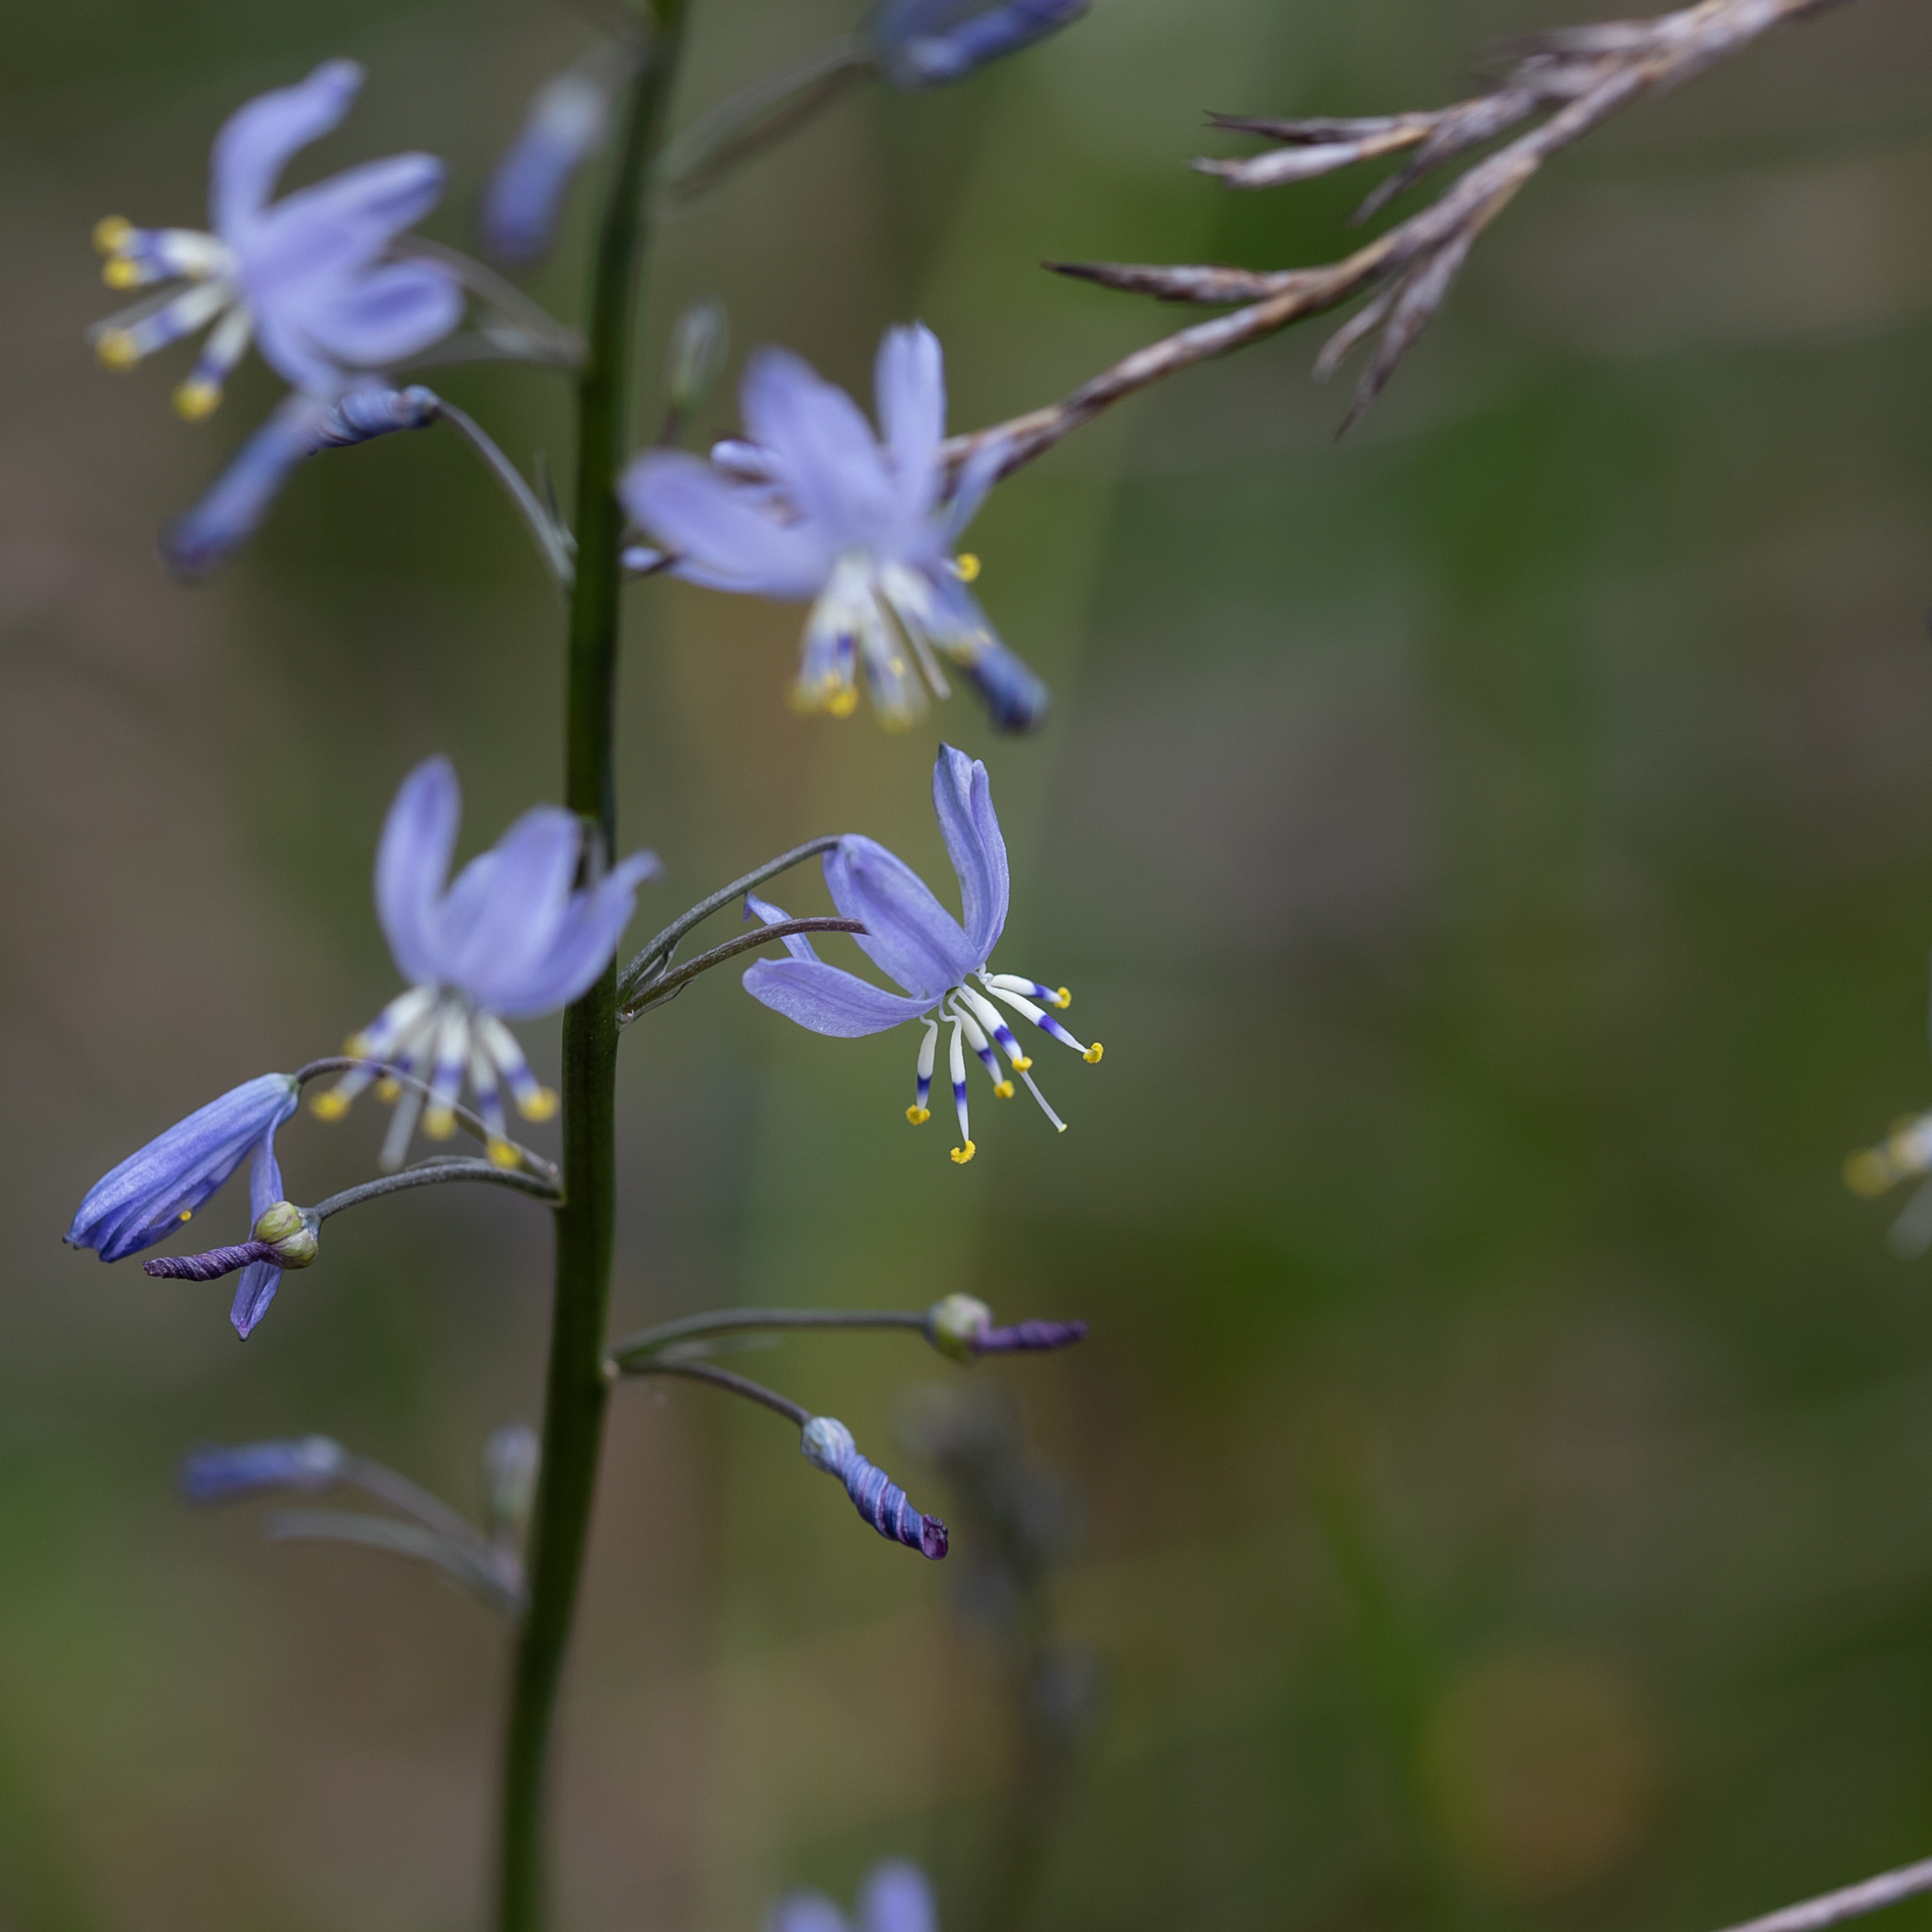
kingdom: Plantae
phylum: Tracheophyta
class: Liliopsida
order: Asparagales
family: Asphodelaceae
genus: Caesia
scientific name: Caesia calliantha
